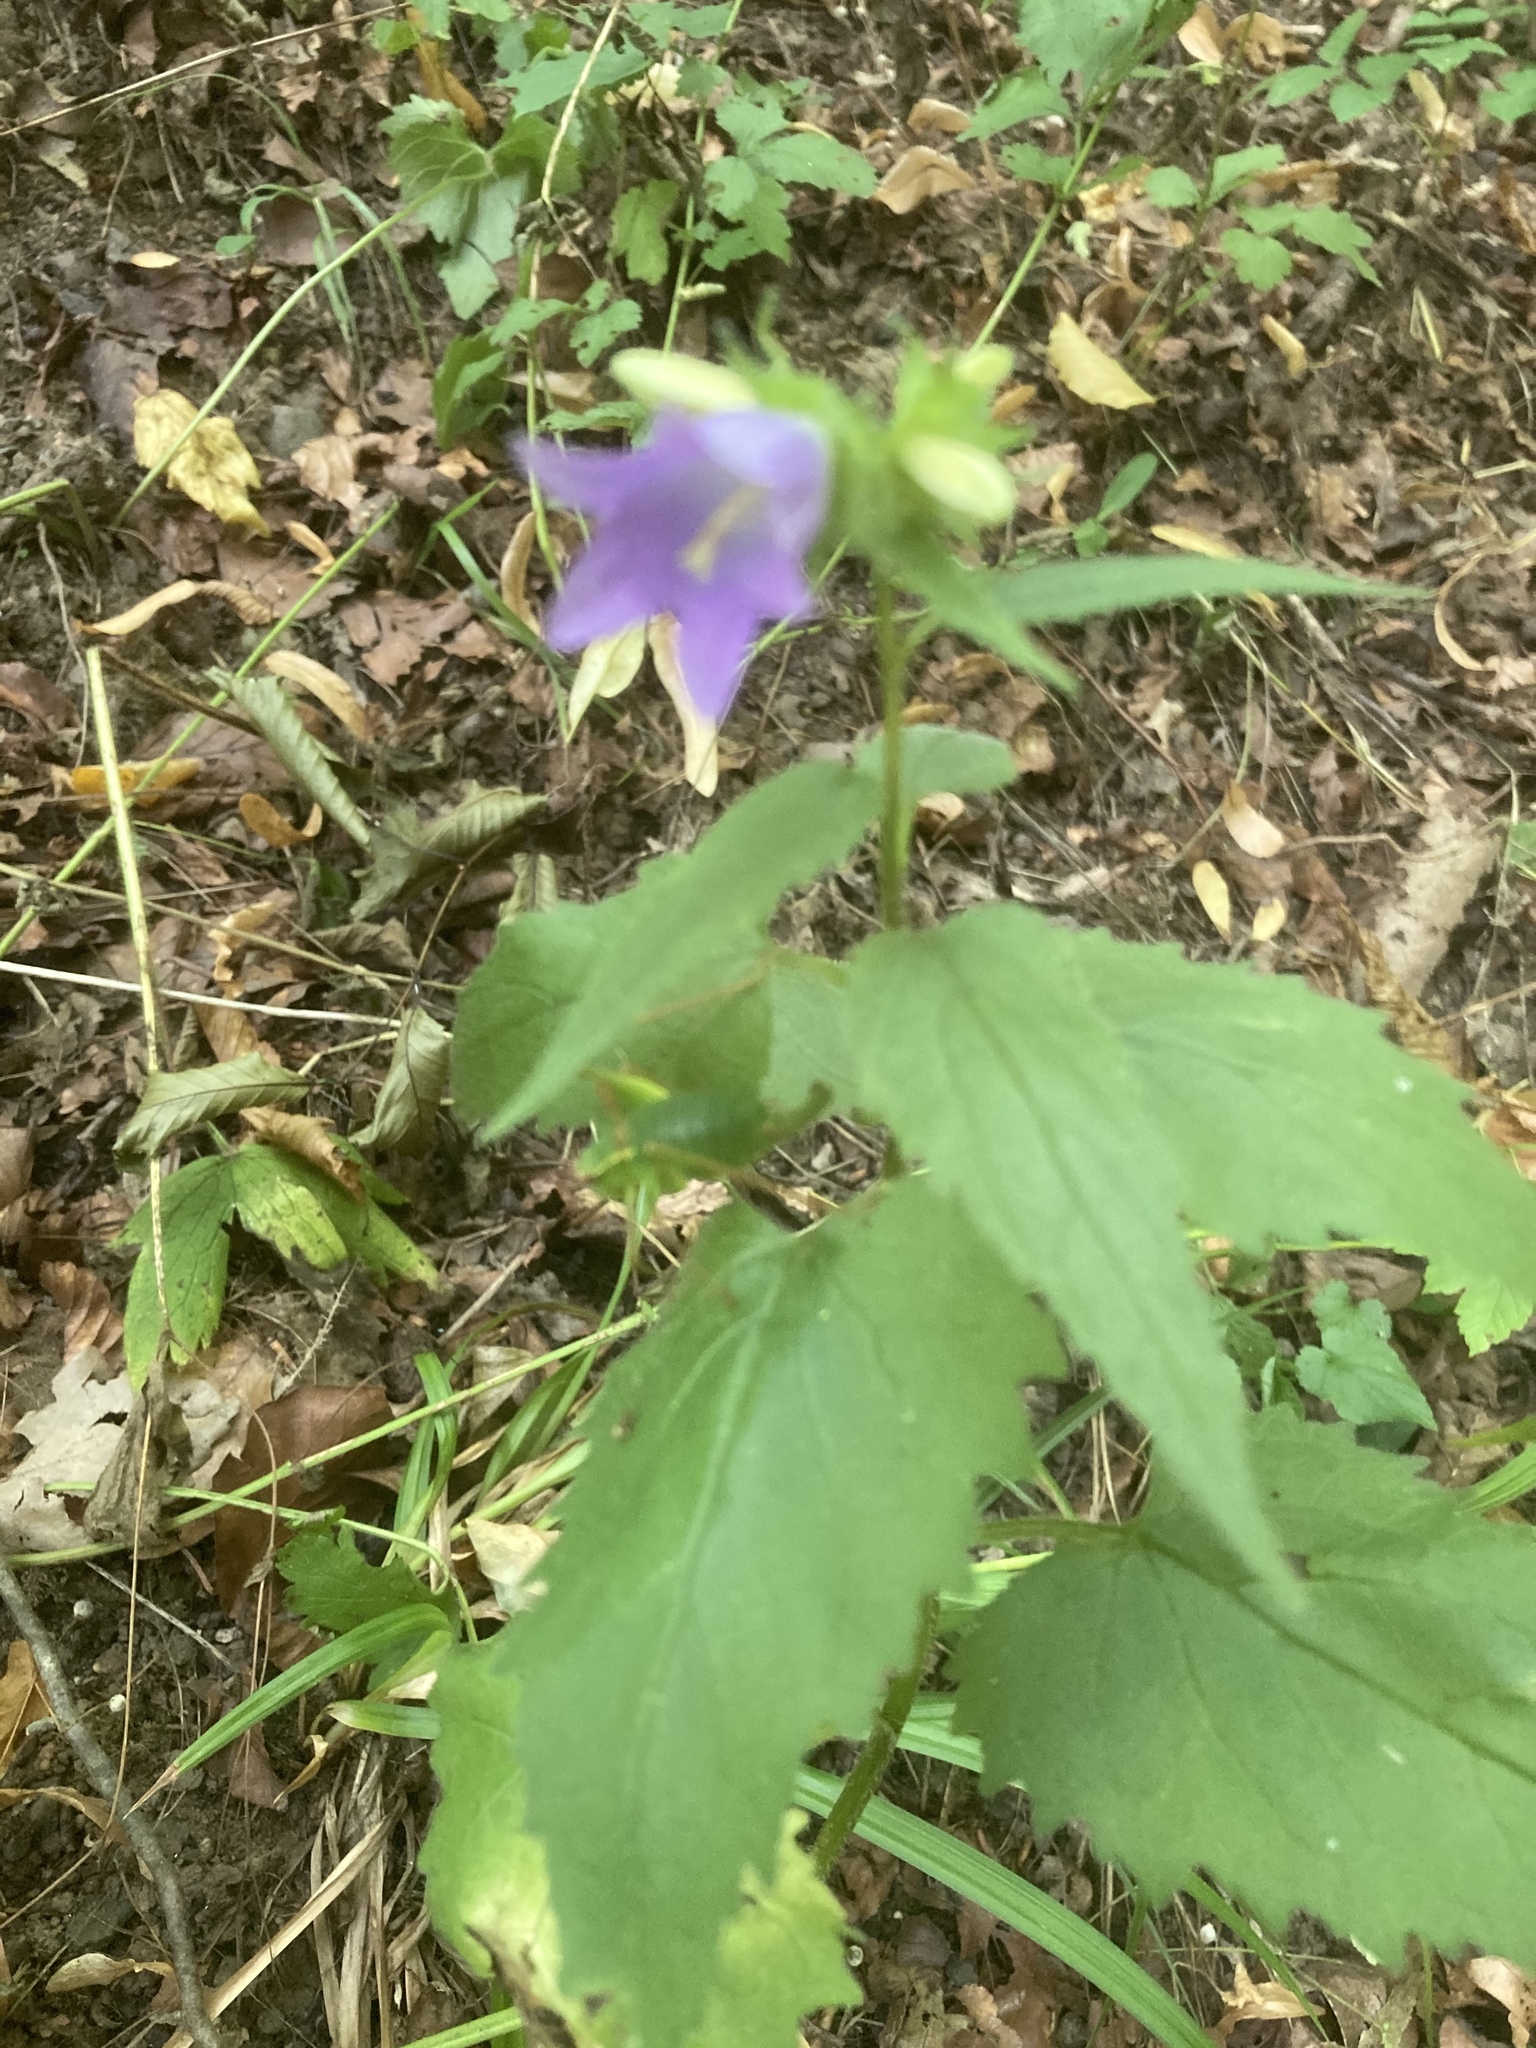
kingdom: Plantae
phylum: Tracheophyta
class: Magnoliopsida
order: Asterales
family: Campanulaceae
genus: Campanula
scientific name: Campanula trachelium
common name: Nettle-leaved bellflower
